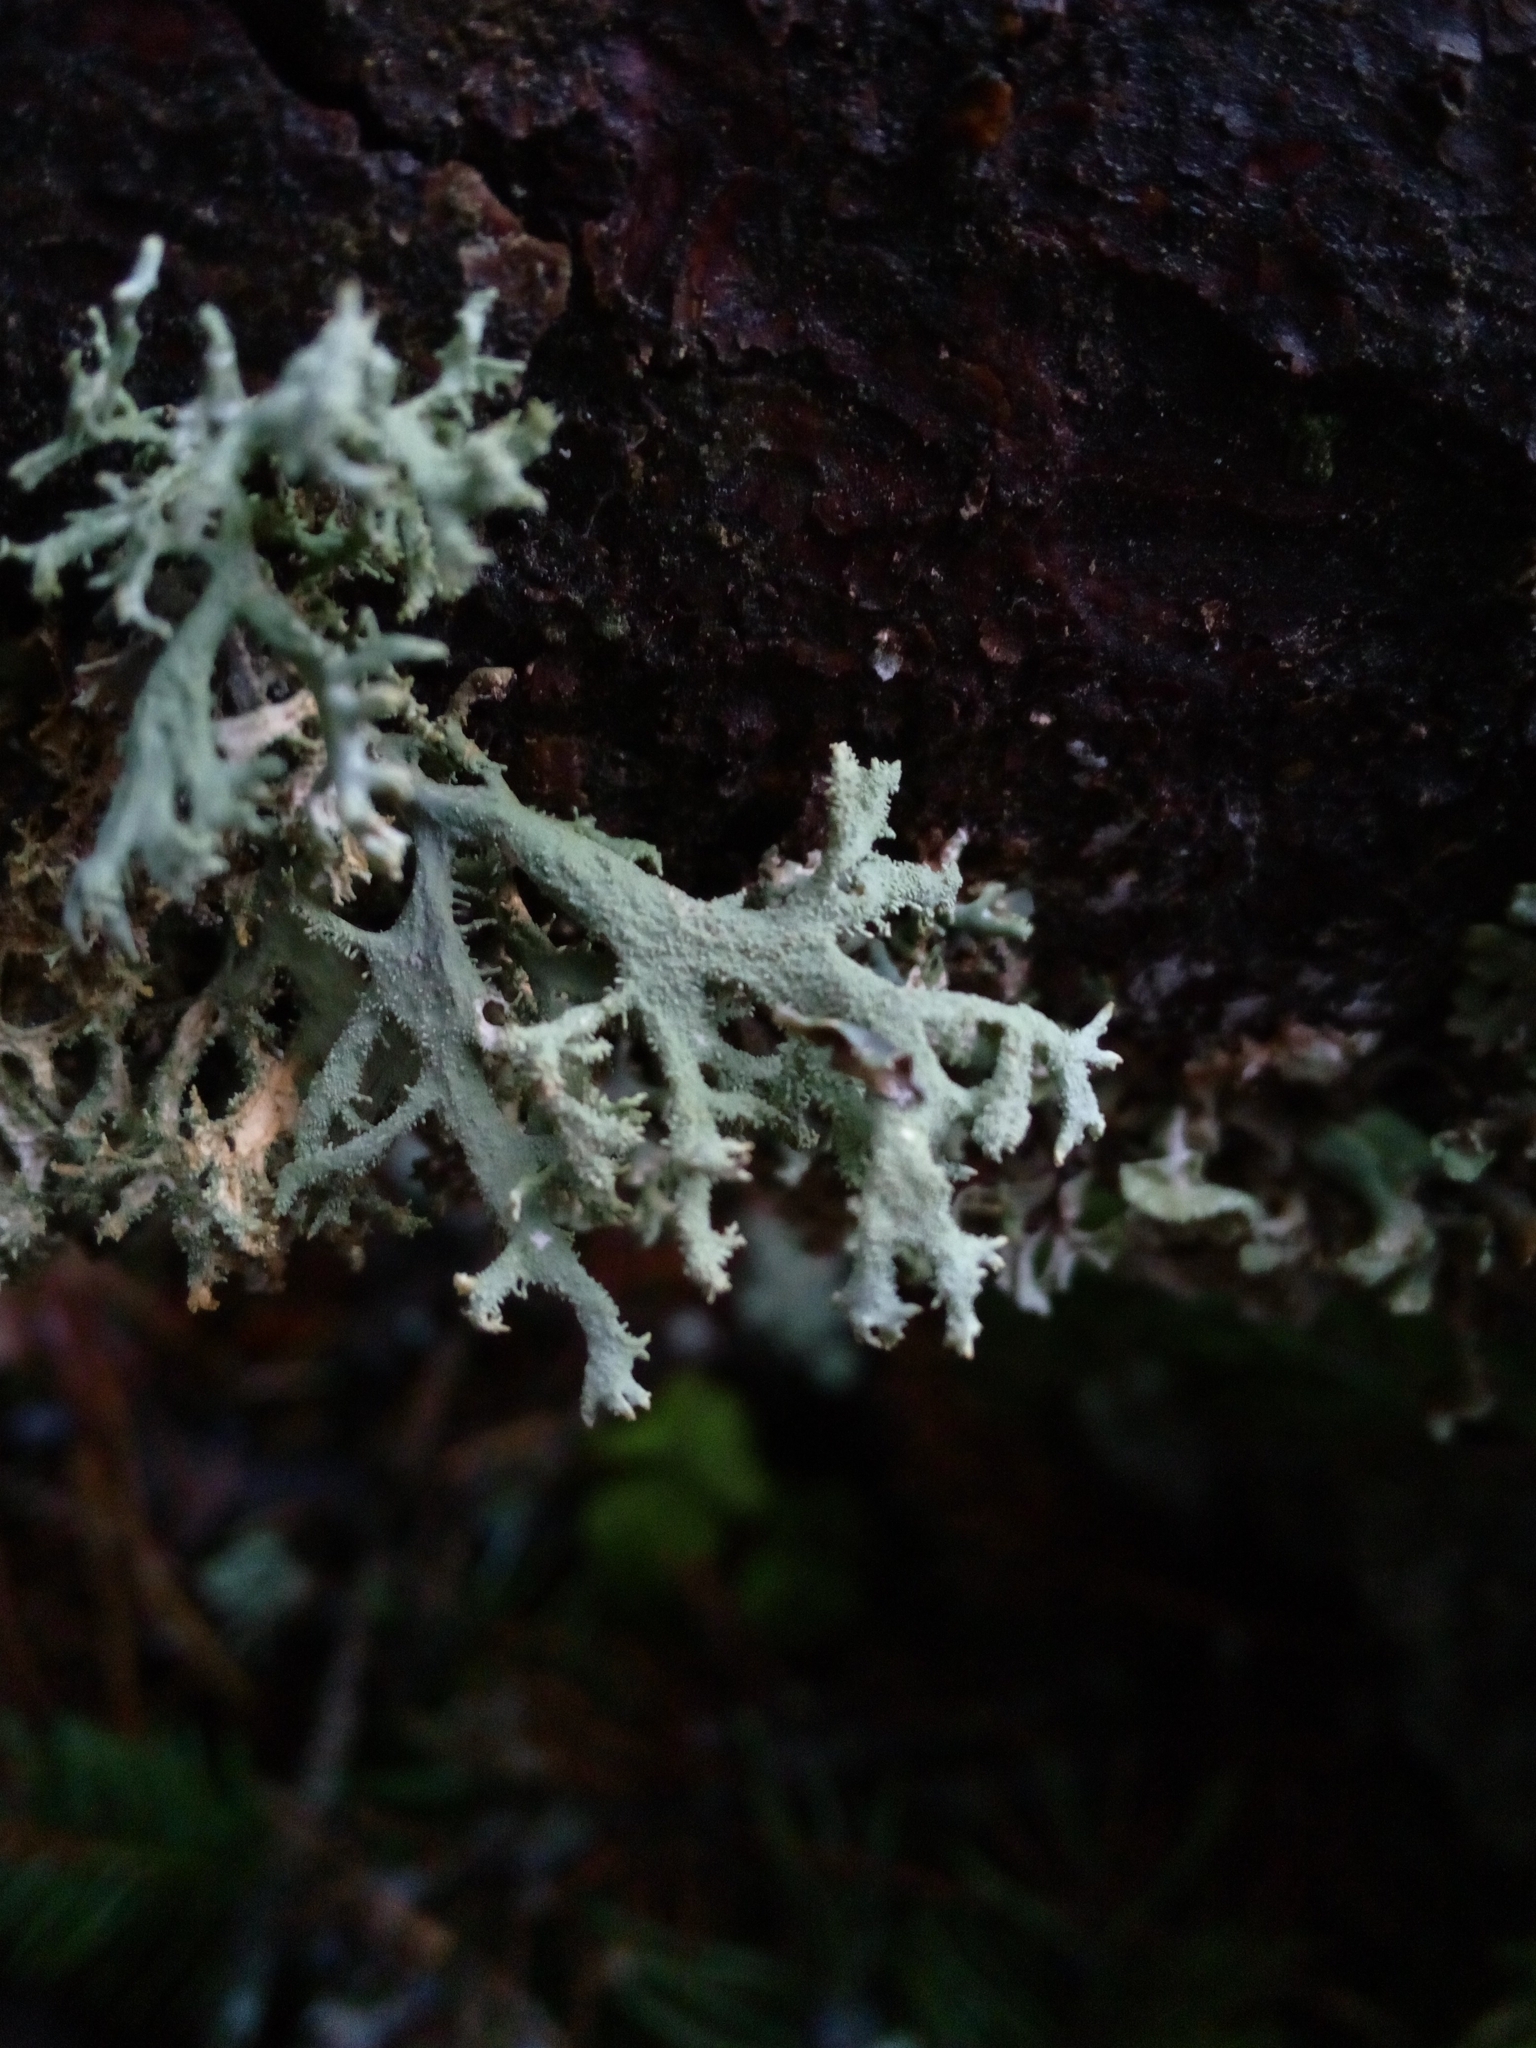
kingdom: Fungi
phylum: Ascomycota
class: Lecanoromycetes
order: Lecanorales
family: Parmeliaceae
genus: Pseudevernia
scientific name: Pseudevernia furfuracea
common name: Tree moss
